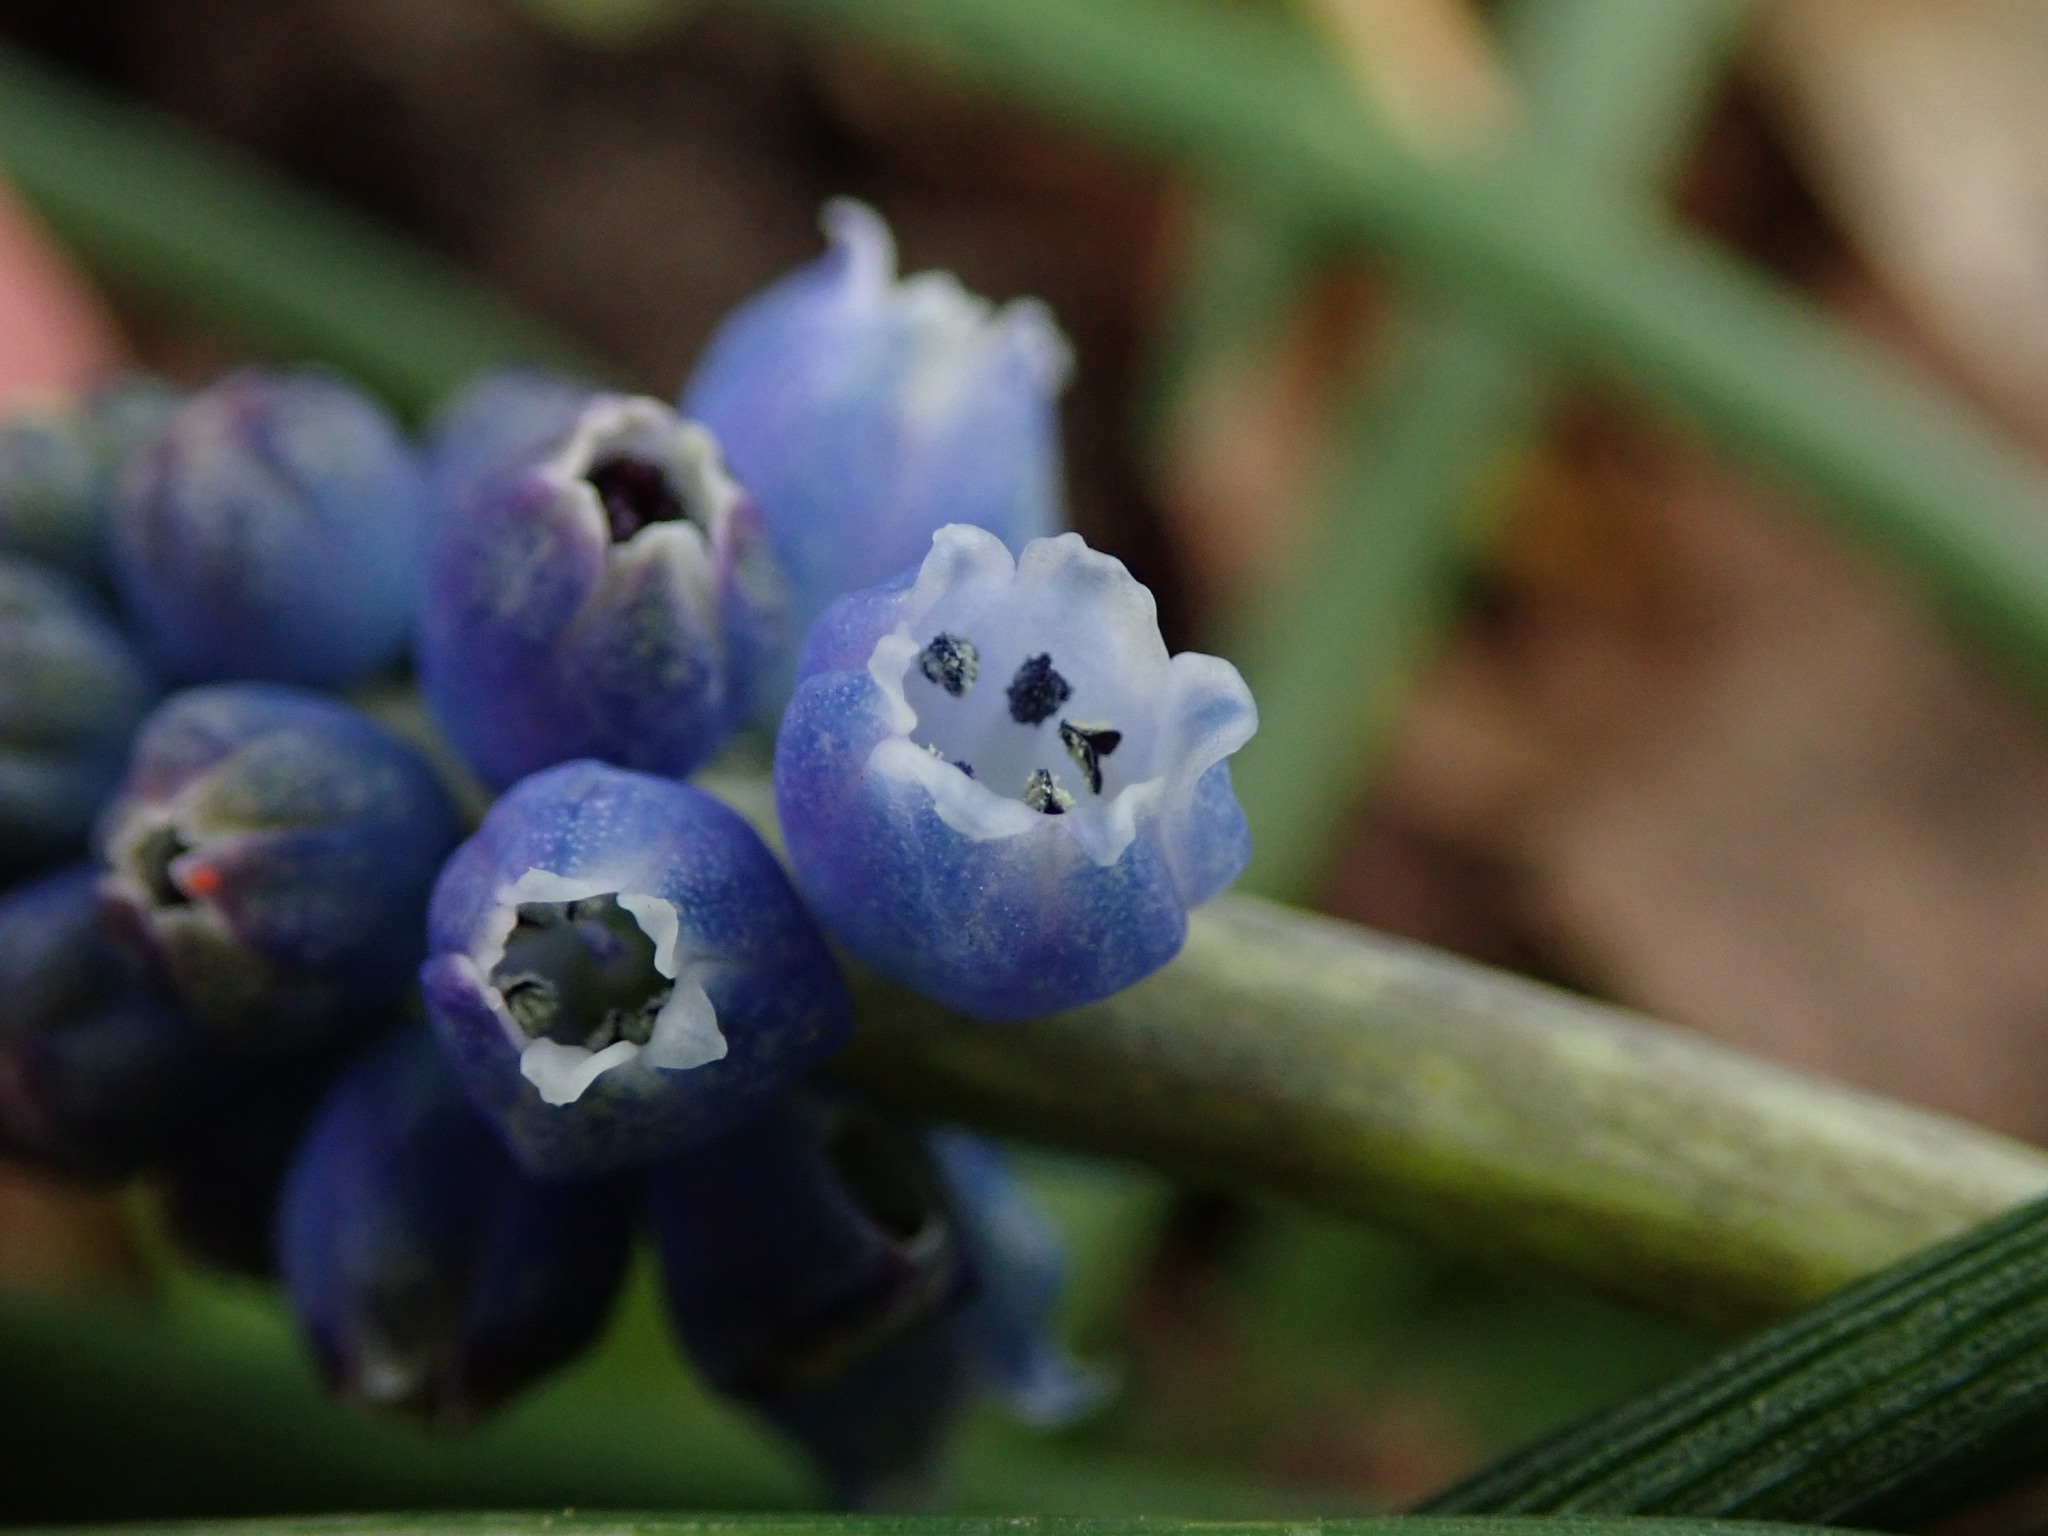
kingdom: Plantae
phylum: Tracheophyta
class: Liliopsida
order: Asparagales
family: Asparagaceae
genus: Muscari
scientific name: Muscari armeniacum
